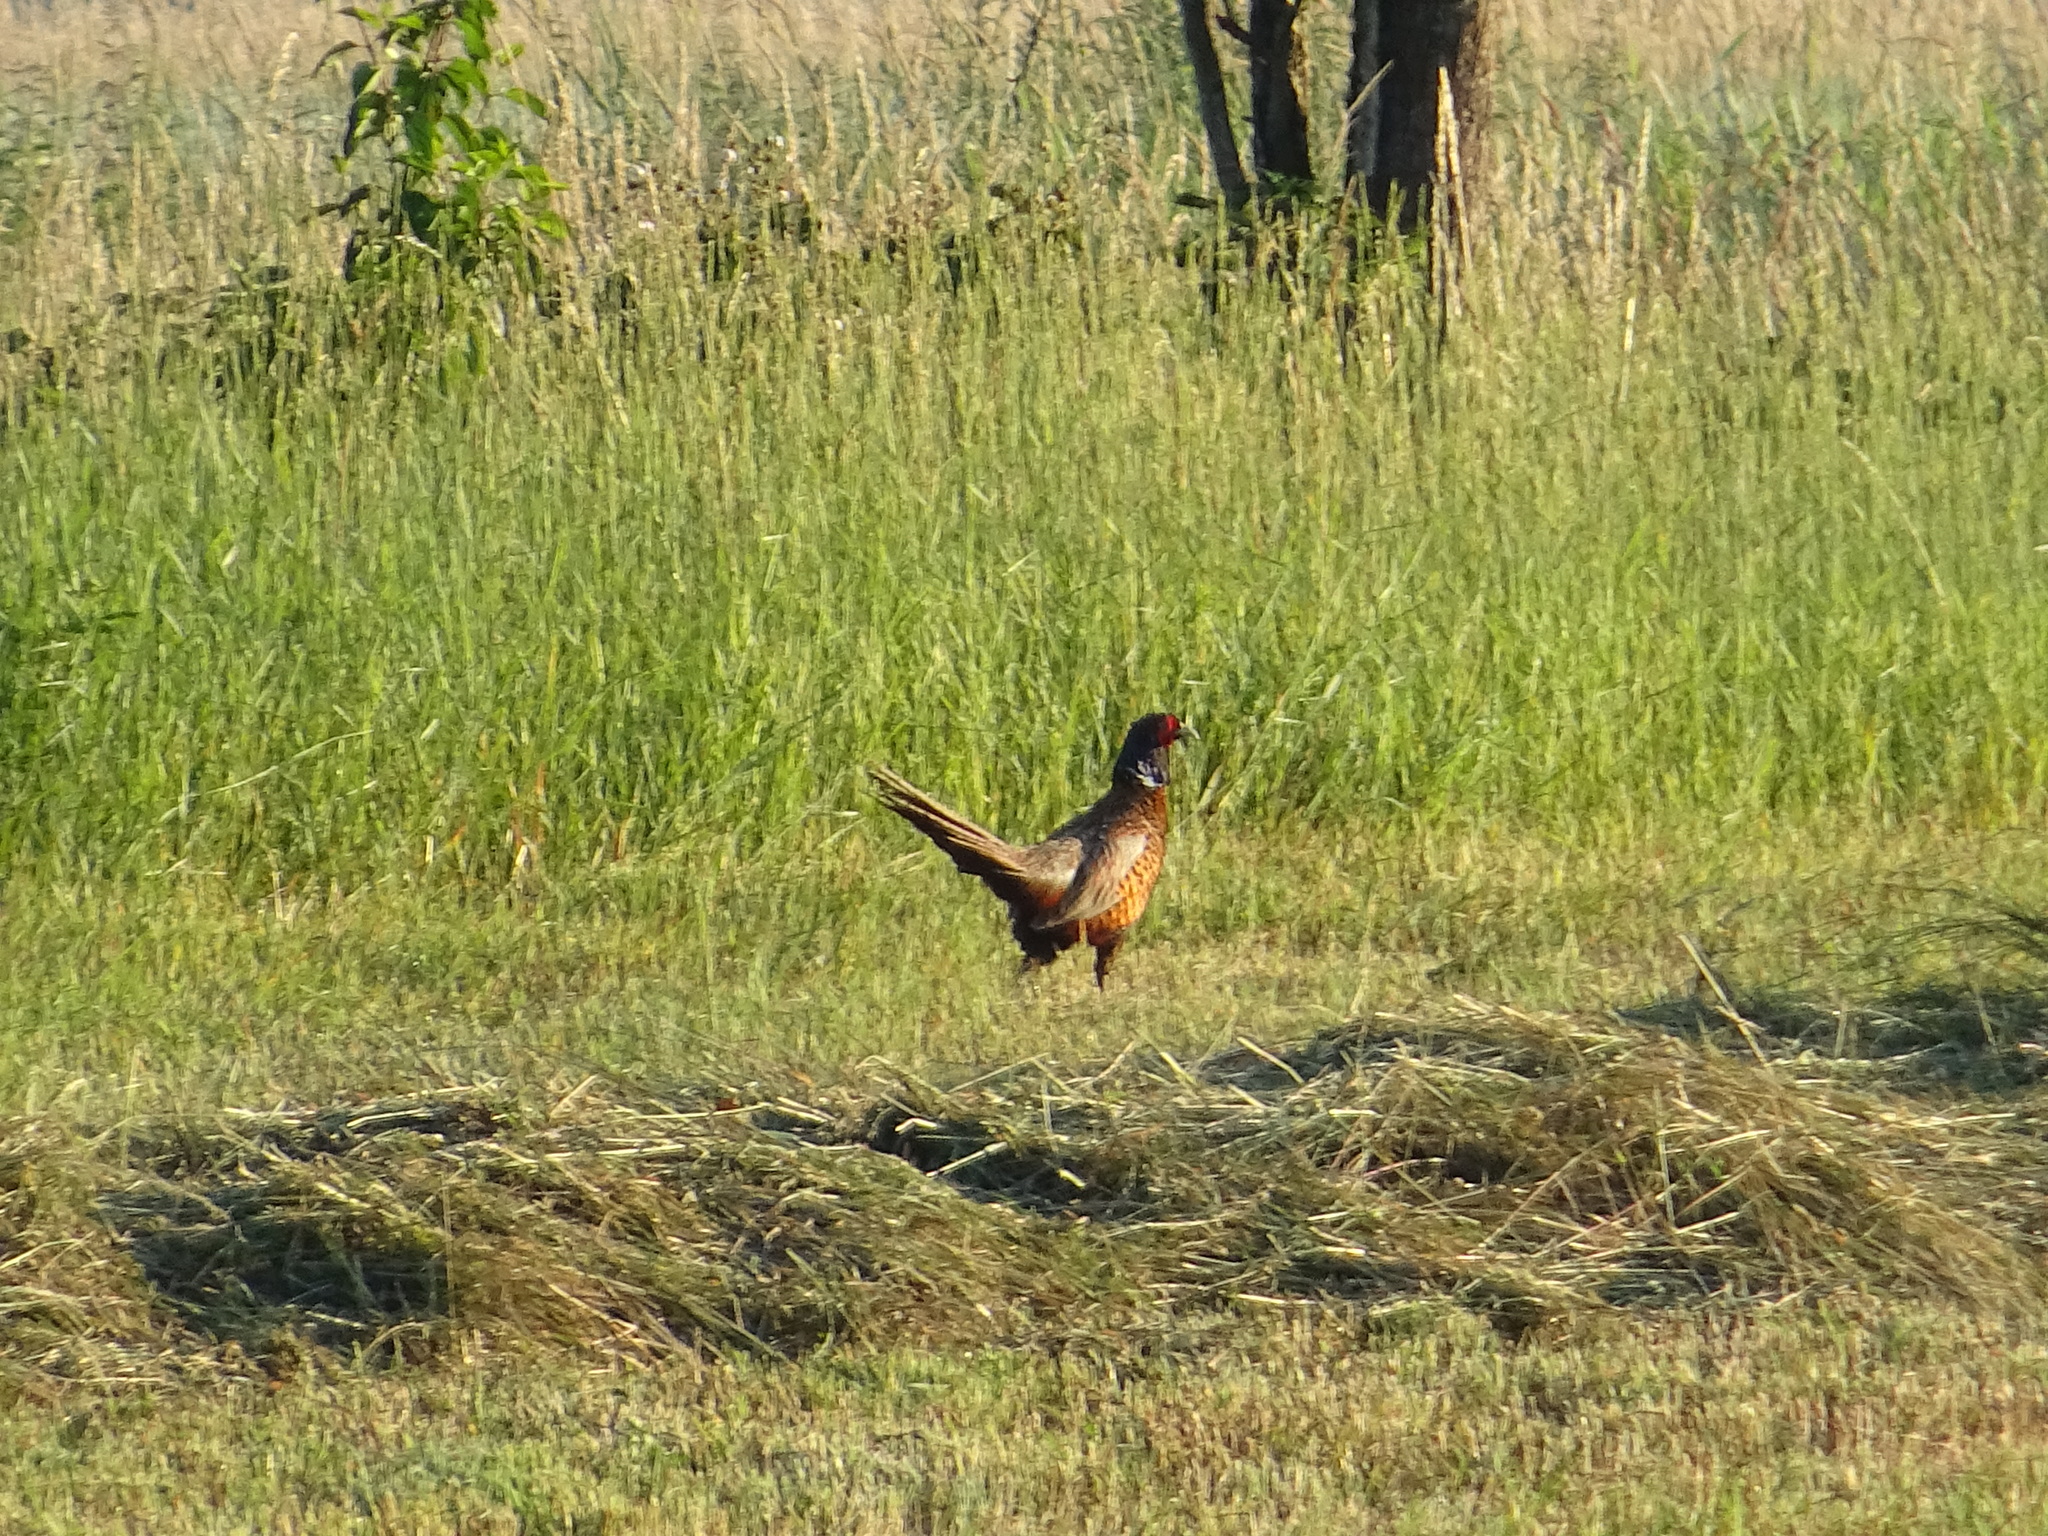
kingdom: Animalia
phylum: Chordata
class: Aves
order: Galliformes
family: Phasianidae
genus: Phasianus
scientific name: Phasianus colchicus
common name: Common pheasant
